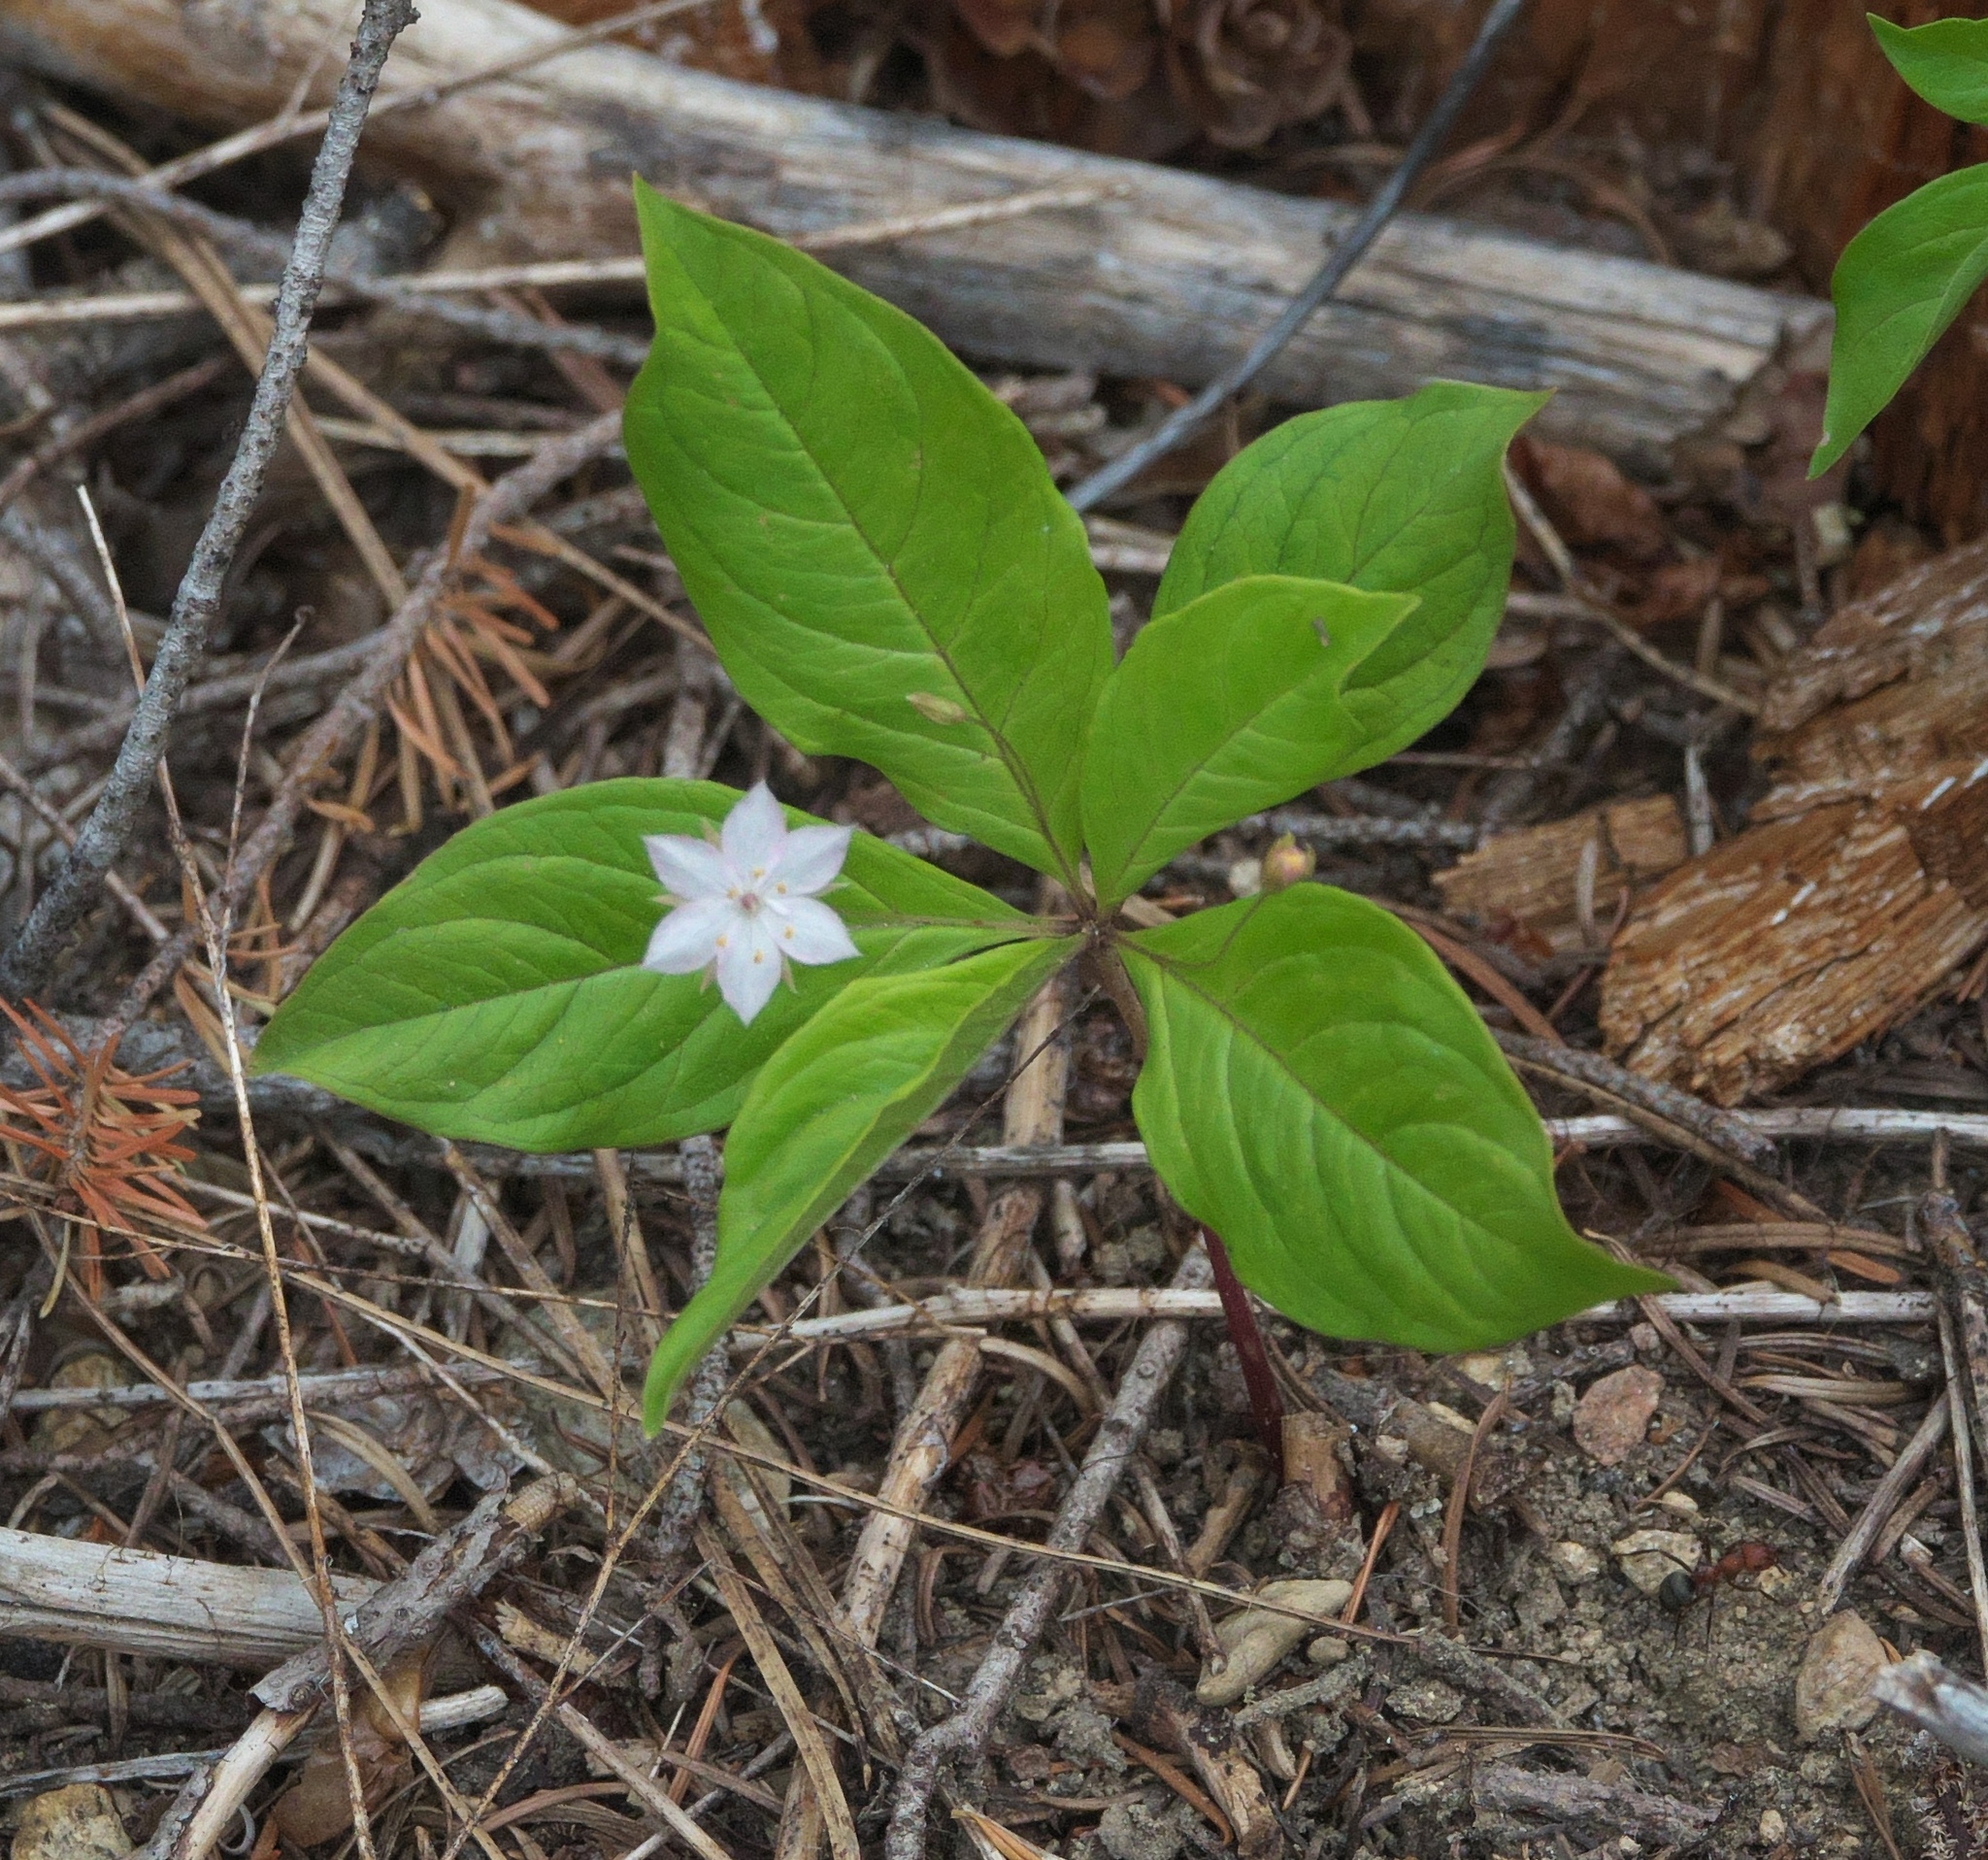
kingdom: Plantae
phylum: Tracheophyta
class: Magnoliopsida
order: Ericales
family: Primulaceae
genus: Lysimachia
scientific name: Lysimachia latifolia
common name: Pacific starflower
